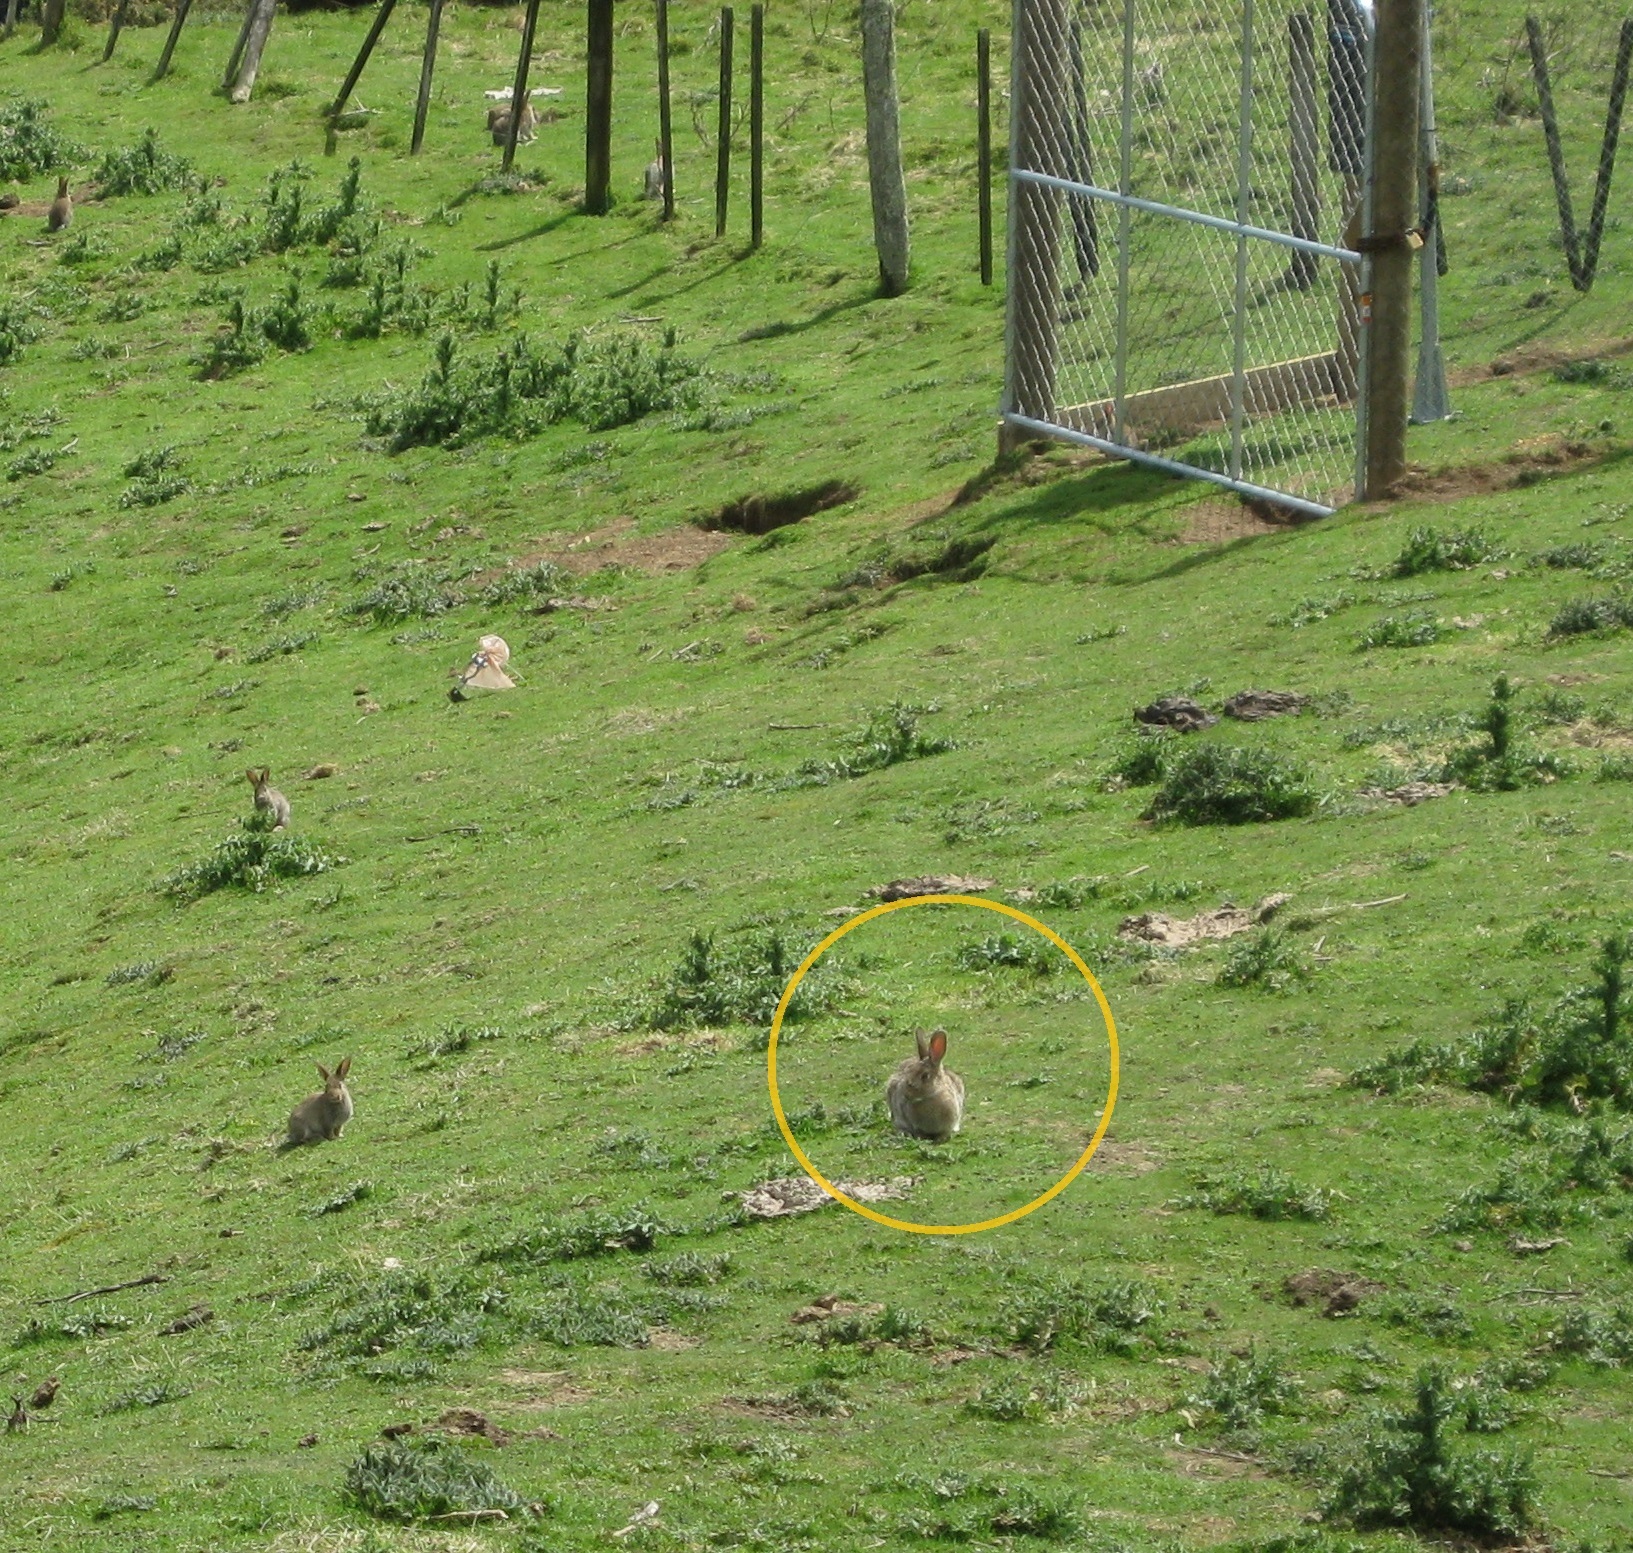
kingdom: Animalia
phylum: Chordata
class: Mammalia
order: Lagomorpha
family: Leporidae
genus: Oryctolagus
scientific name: Oryctolagus cuniculus
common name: European rabbit
